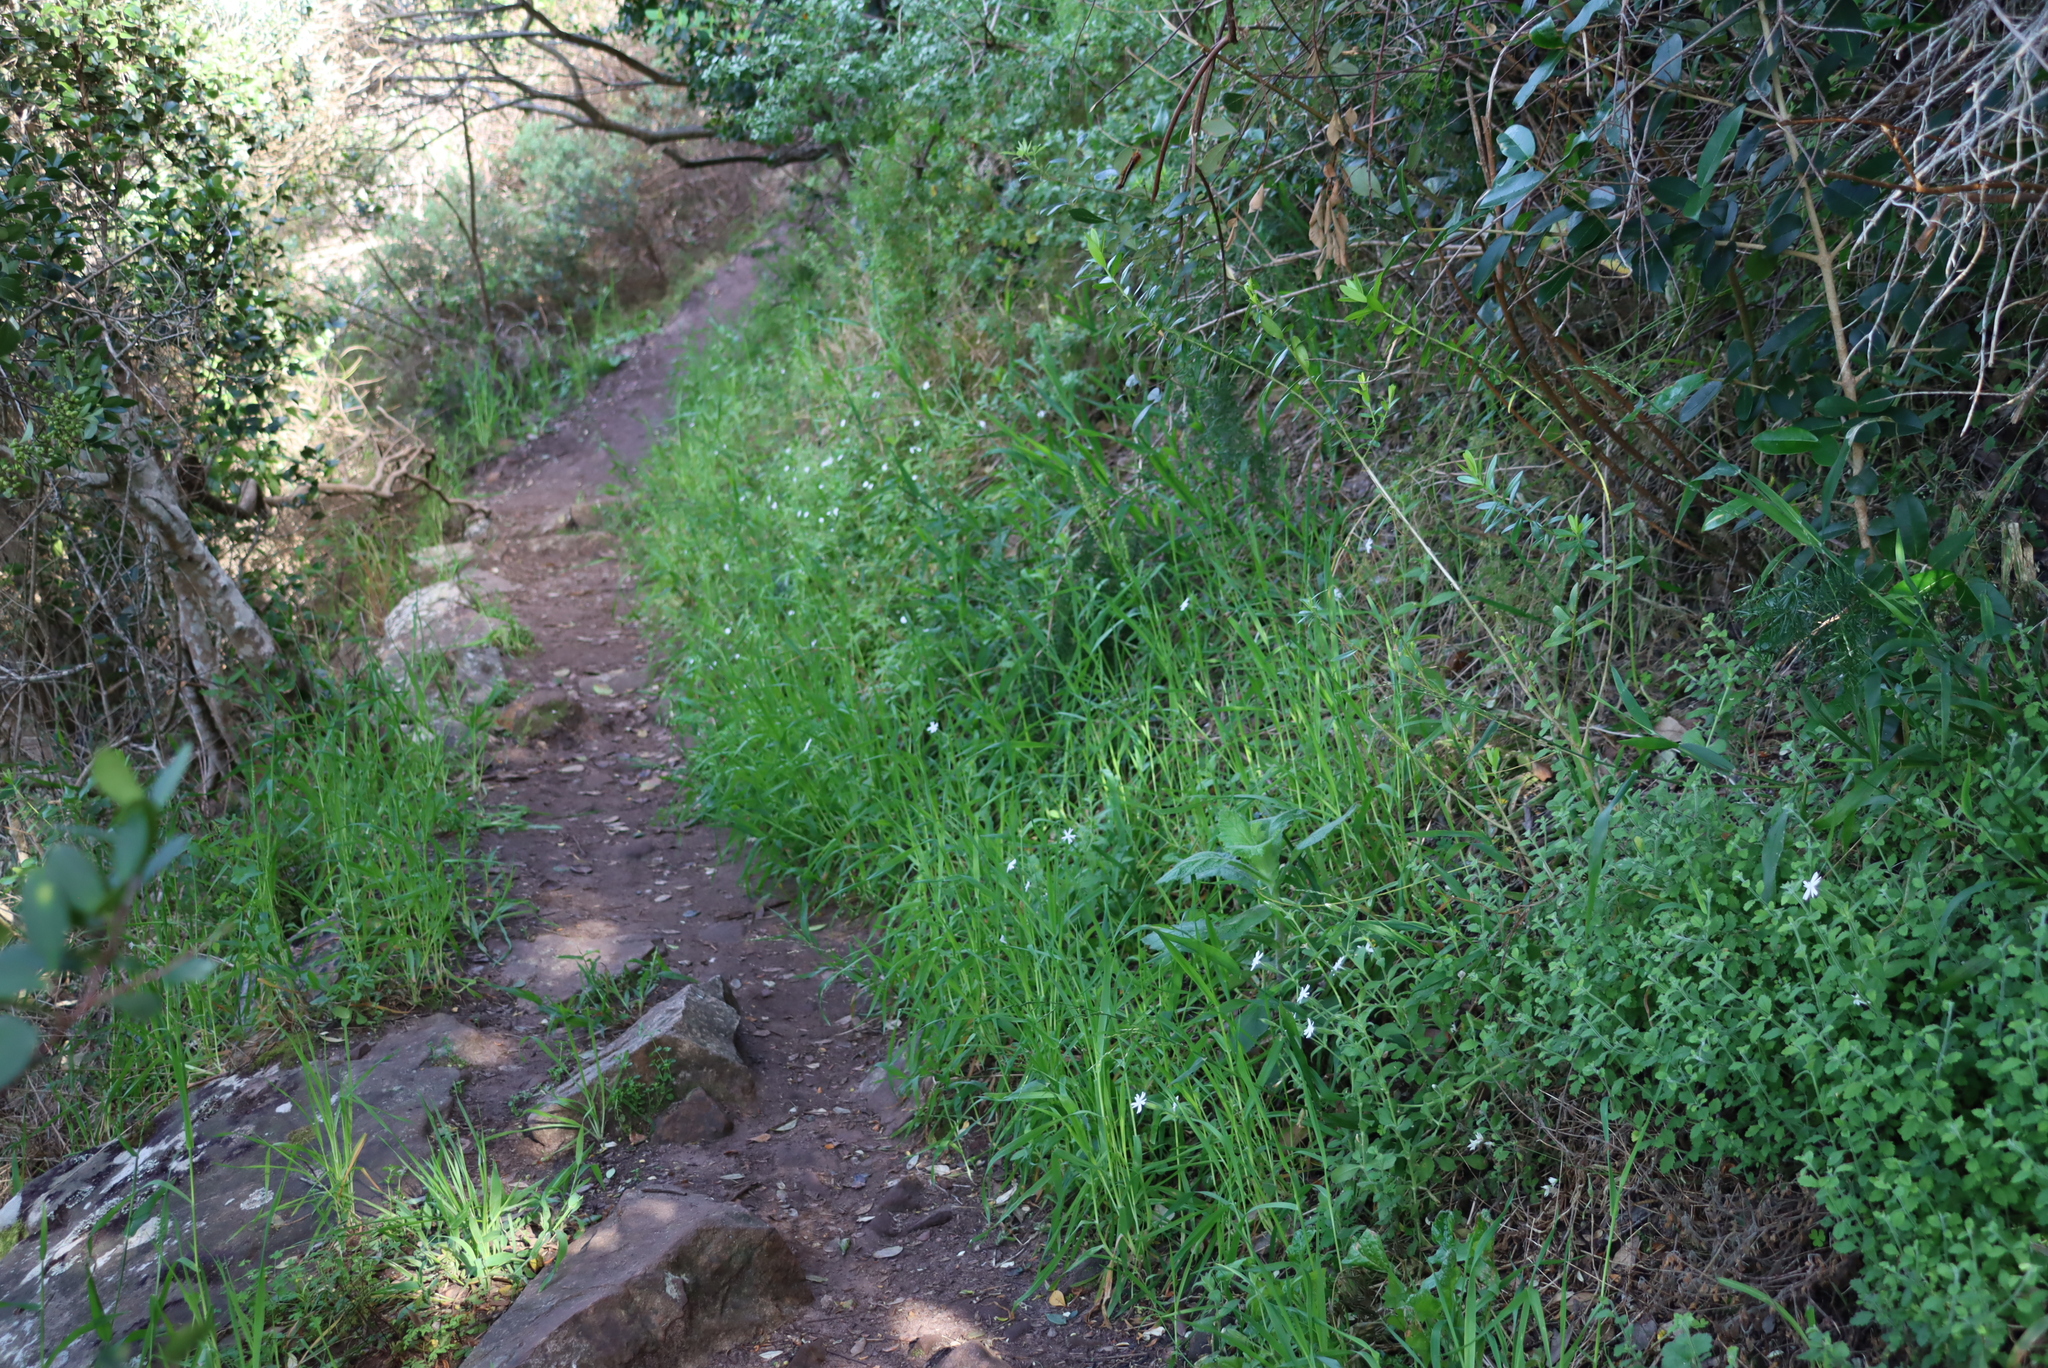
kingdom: Plantae
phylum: Tracheophyta
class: Magnoliopsida
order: Caryophyllales
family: Caryophyllaceae
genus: Silene
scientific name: Silene undulata
